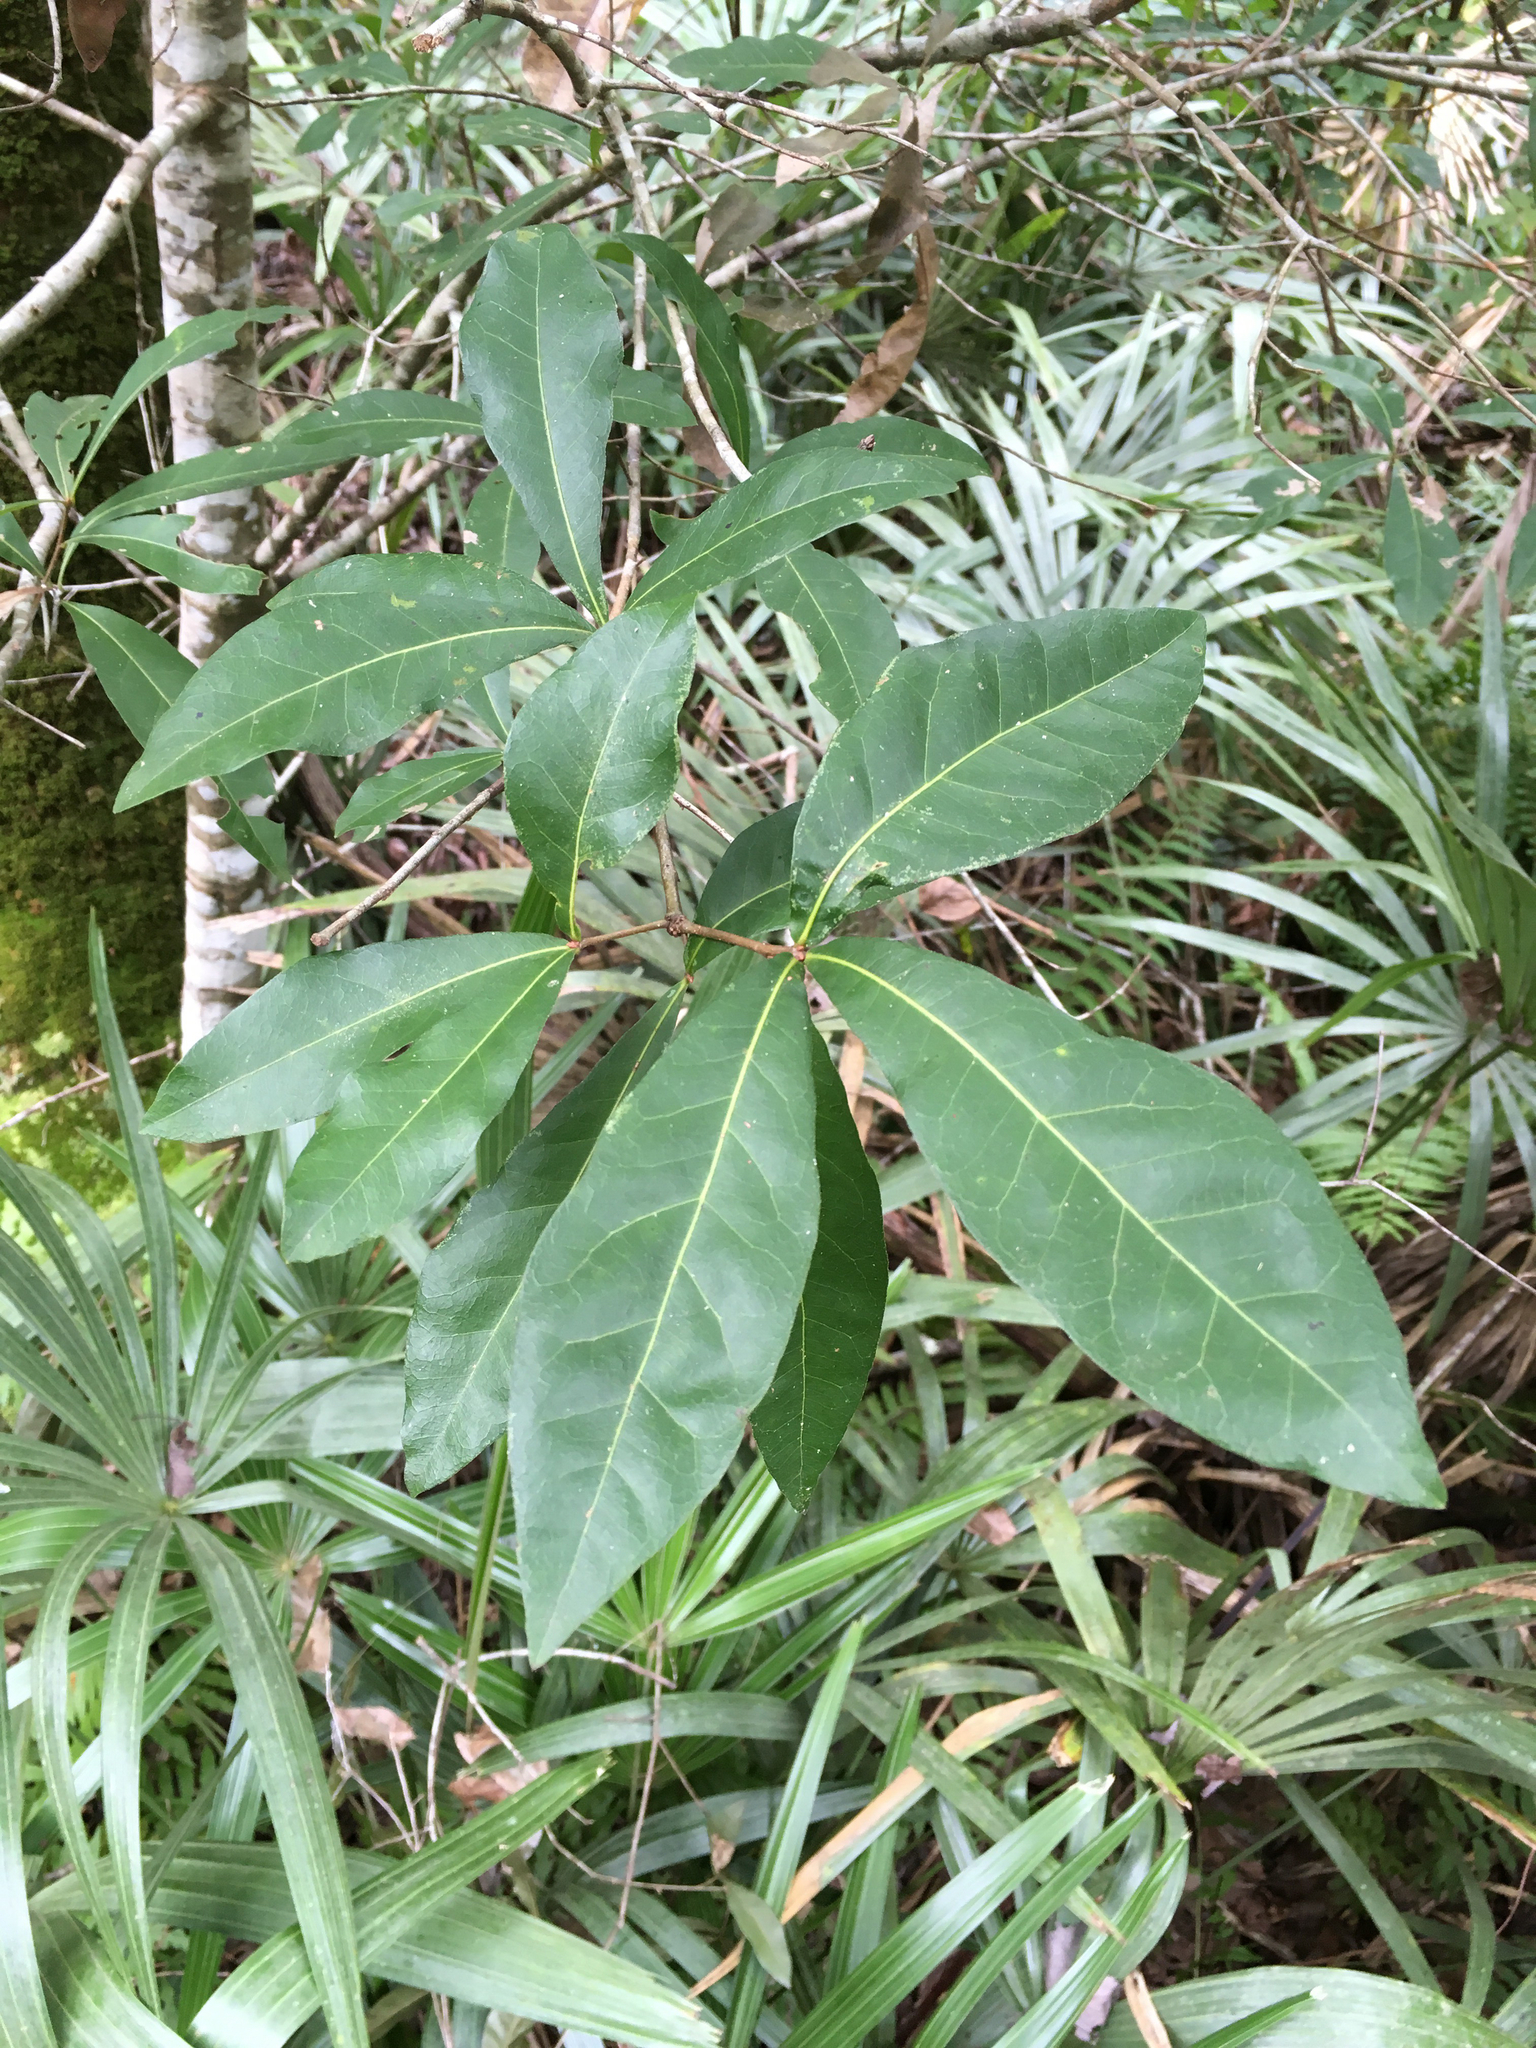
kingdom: Plantae
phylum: Tracheophyta
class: Magnoliopsida
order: Fagales
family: Fagaceae
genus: Quercus
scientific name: Quercus laurifolia
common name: Swamp laurel oak
